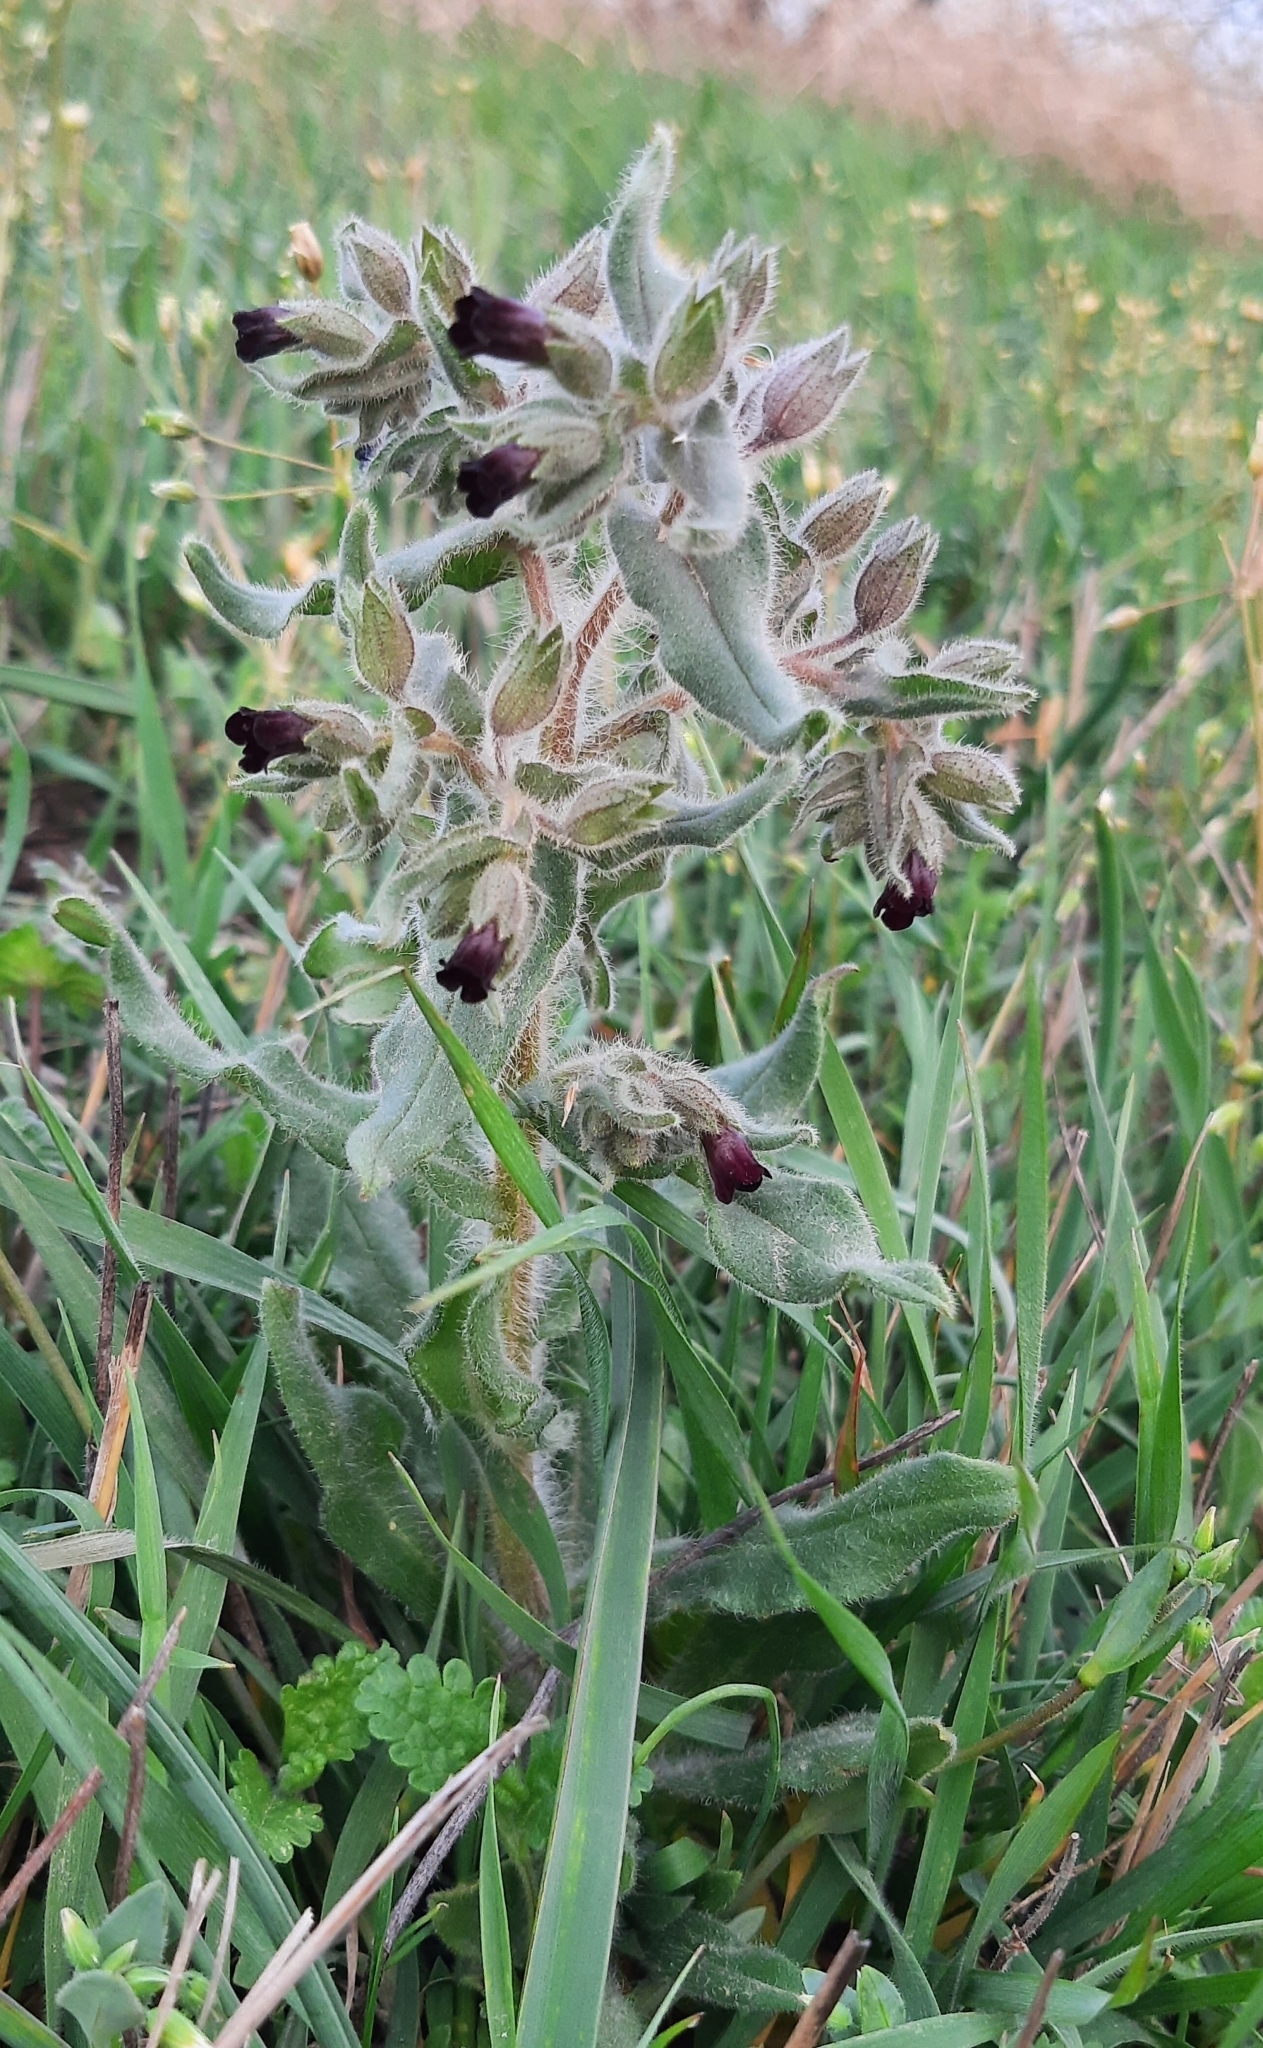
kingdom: Plantae
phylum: Tracheophyta
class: Magnoliopsida
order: Boraginales
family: Boraginaceae
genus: Nonea
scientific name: Nonea pulla
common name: Brown nonea
